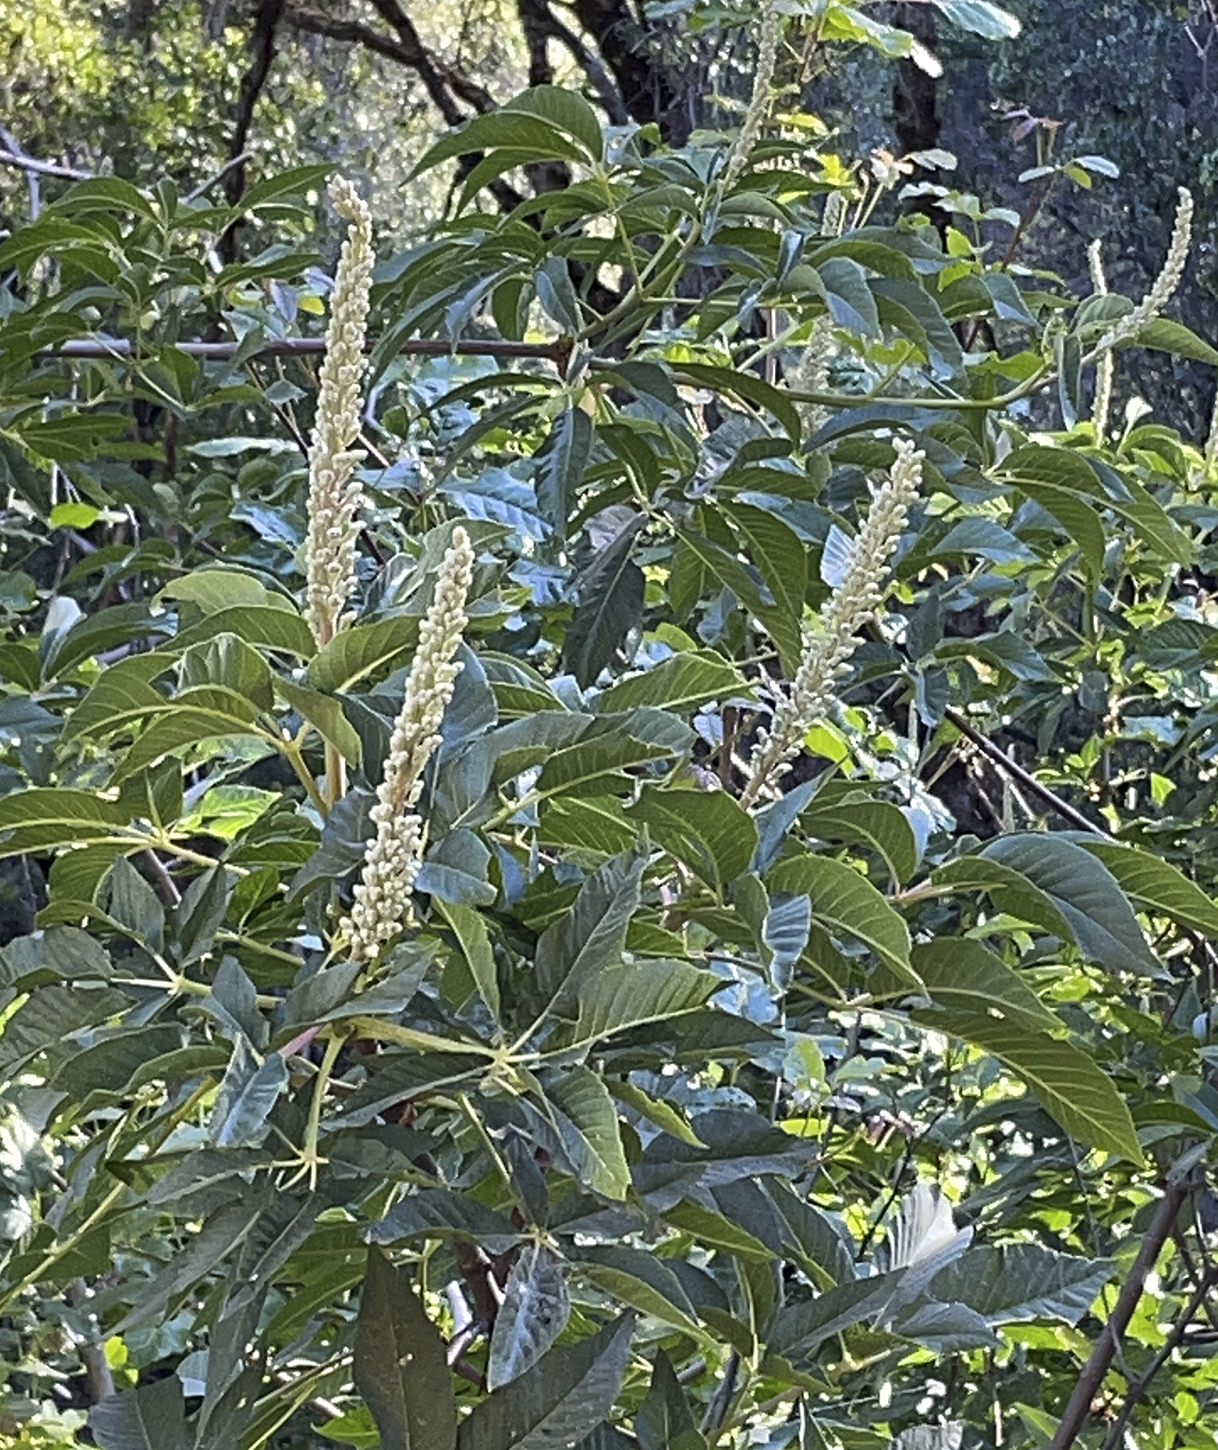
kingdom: Plantae
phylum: Tracheophyta
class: Magnoliopsida
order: Sapindales
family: Sapindaceae
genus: Aesculus
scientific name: Aesculus californica
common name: California buckeye
